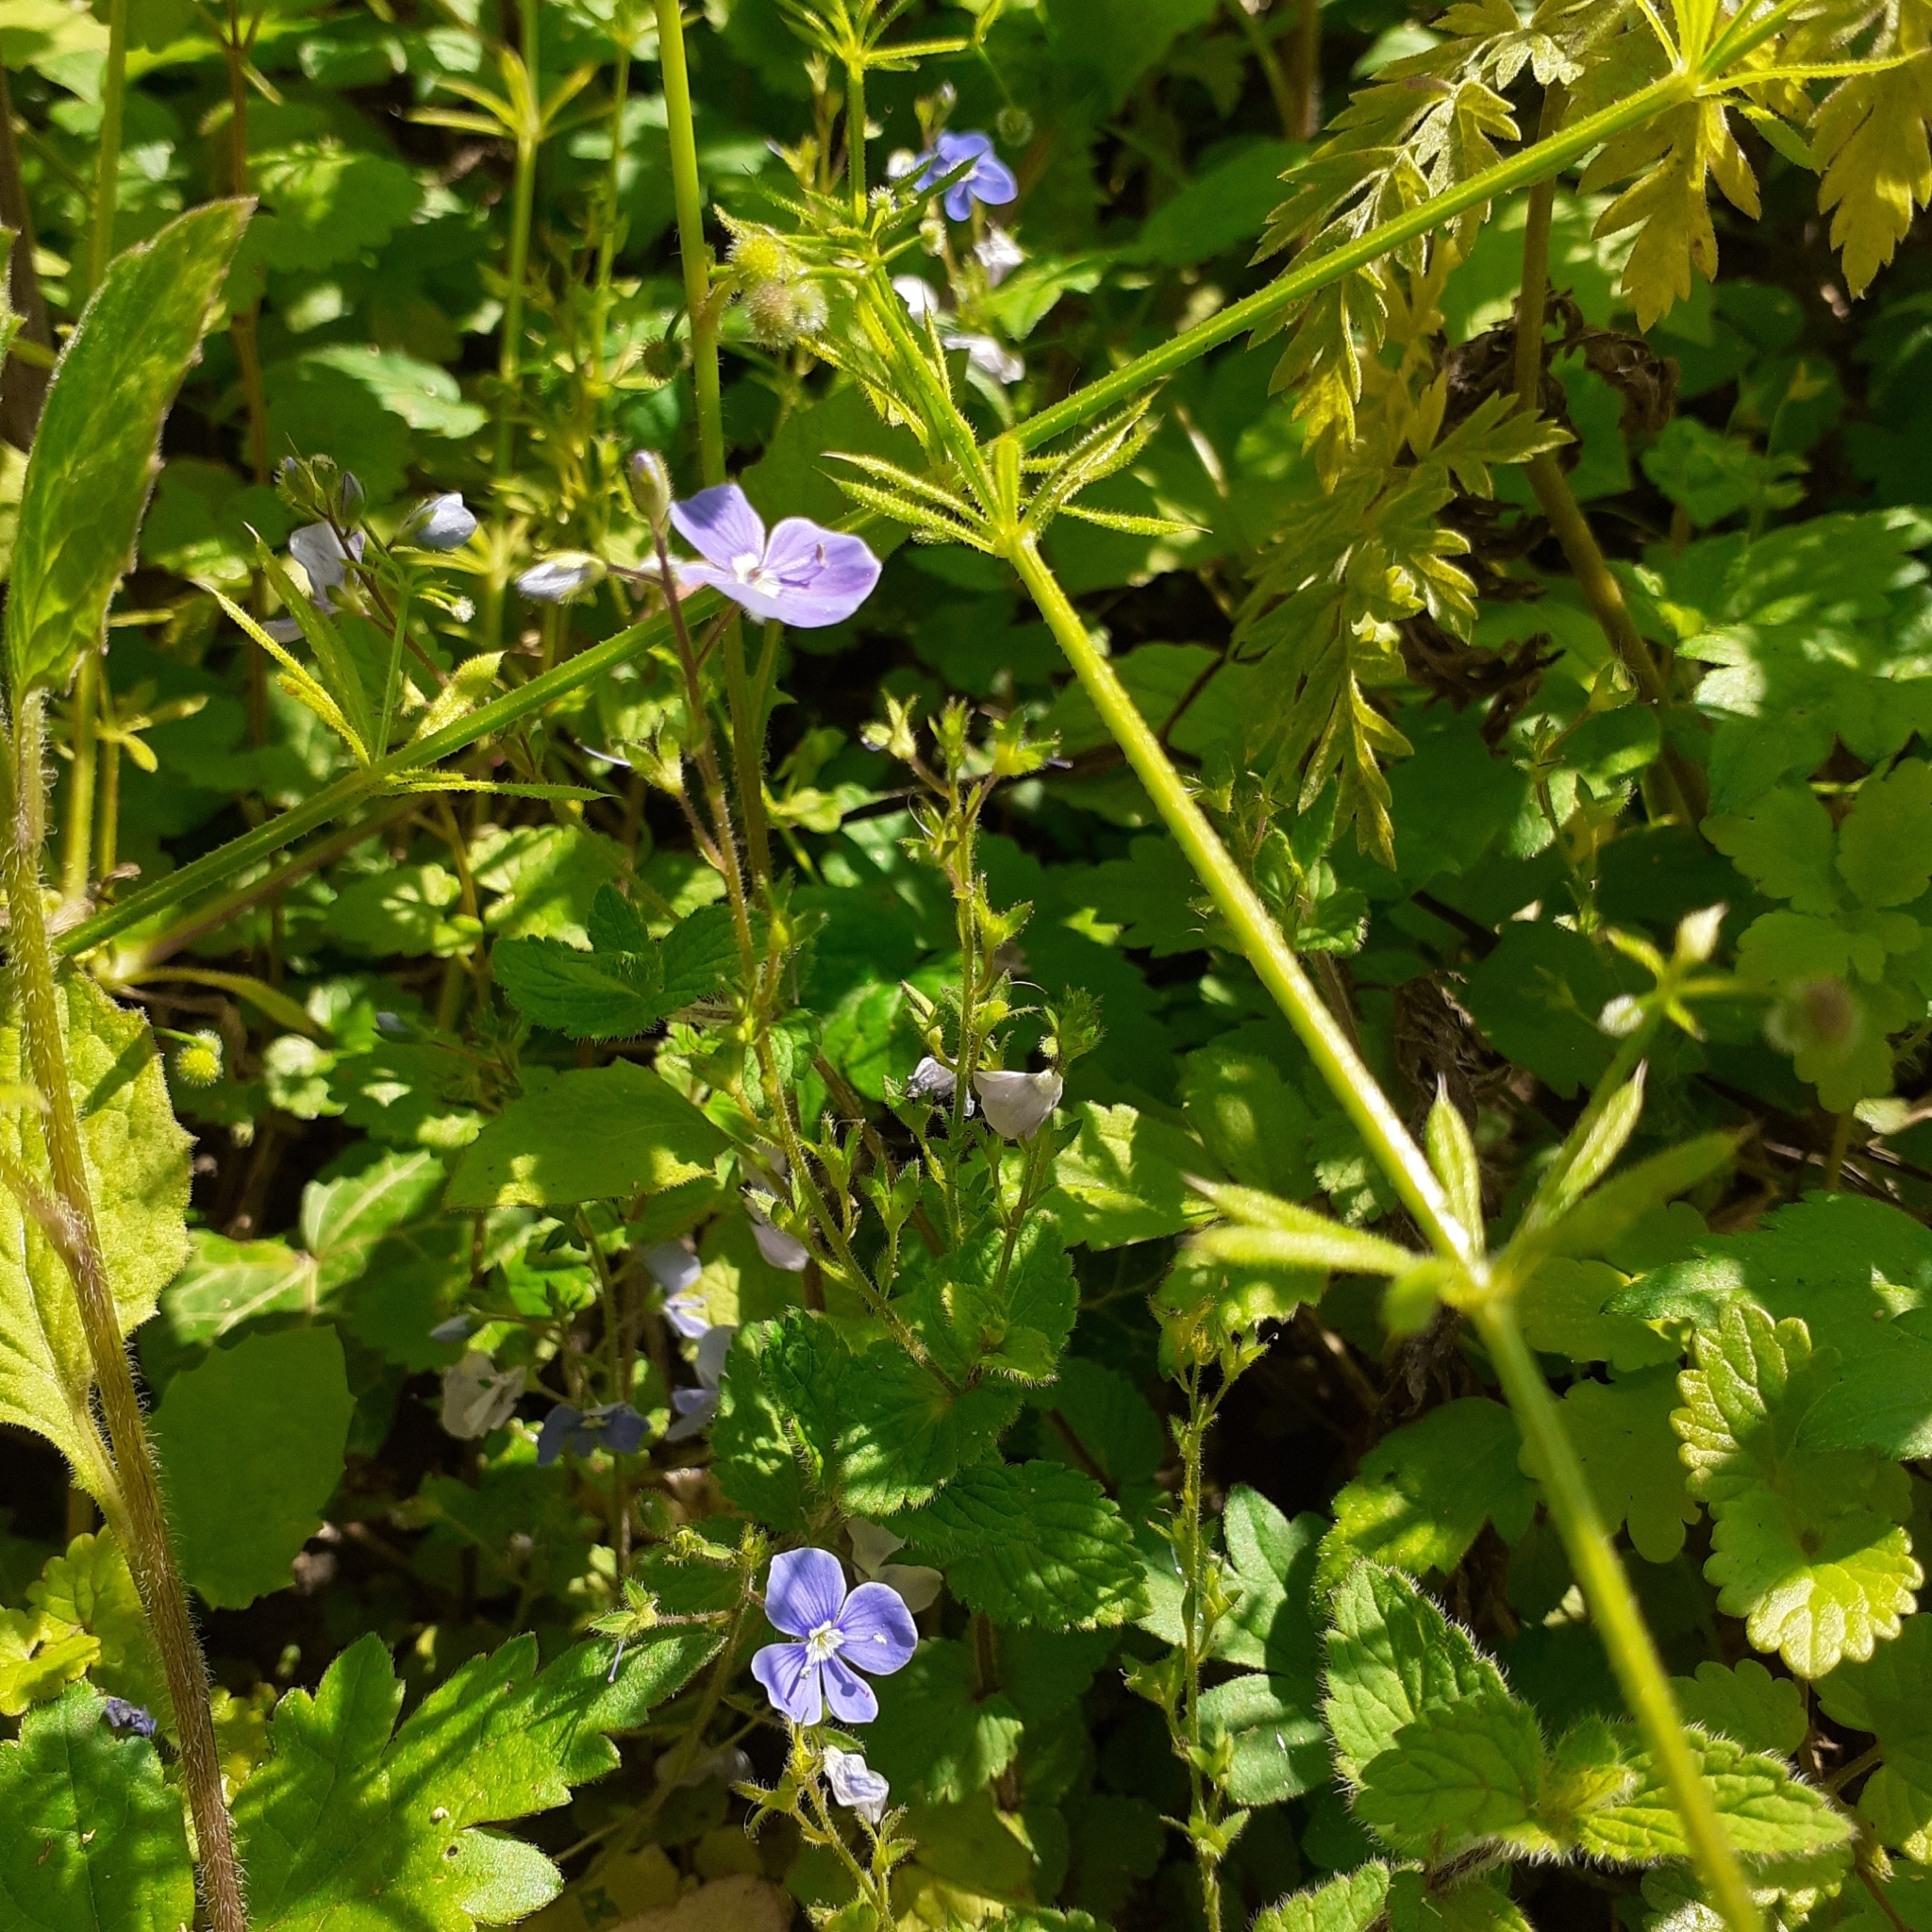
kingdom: Plantae
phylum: Tracheophyta
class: Magnoliopsida
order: Lamiales
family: Plantaginaceae
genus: Veronica
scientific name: Veronica chamaedrys
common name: Germander speedwell
